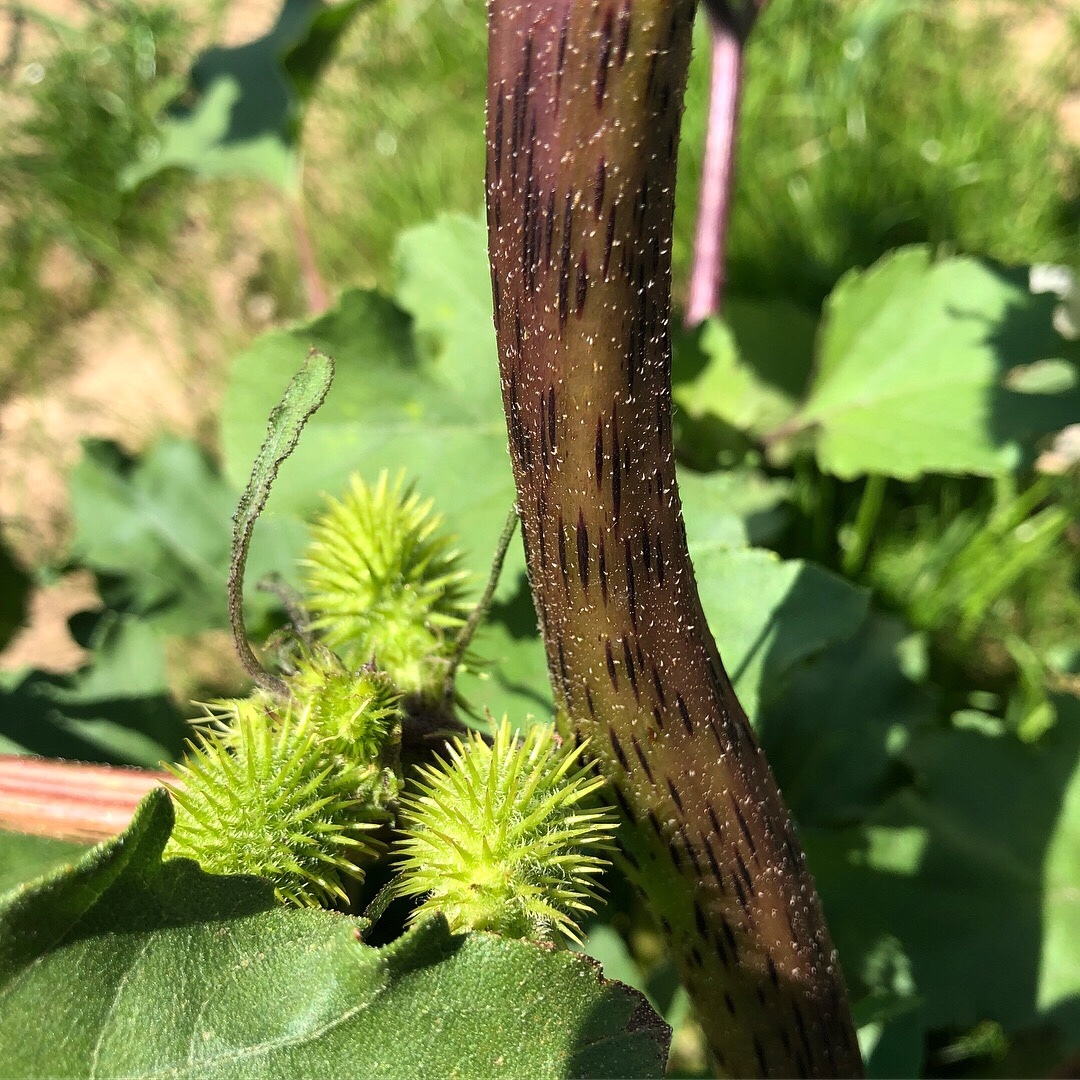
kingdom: Plantae
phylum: Tracheophyta
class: Magnoliopsida
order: Asterales
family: Asteraceae
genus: Xanthium
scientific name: Xanthium strumarium
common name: Rough cocklebur
